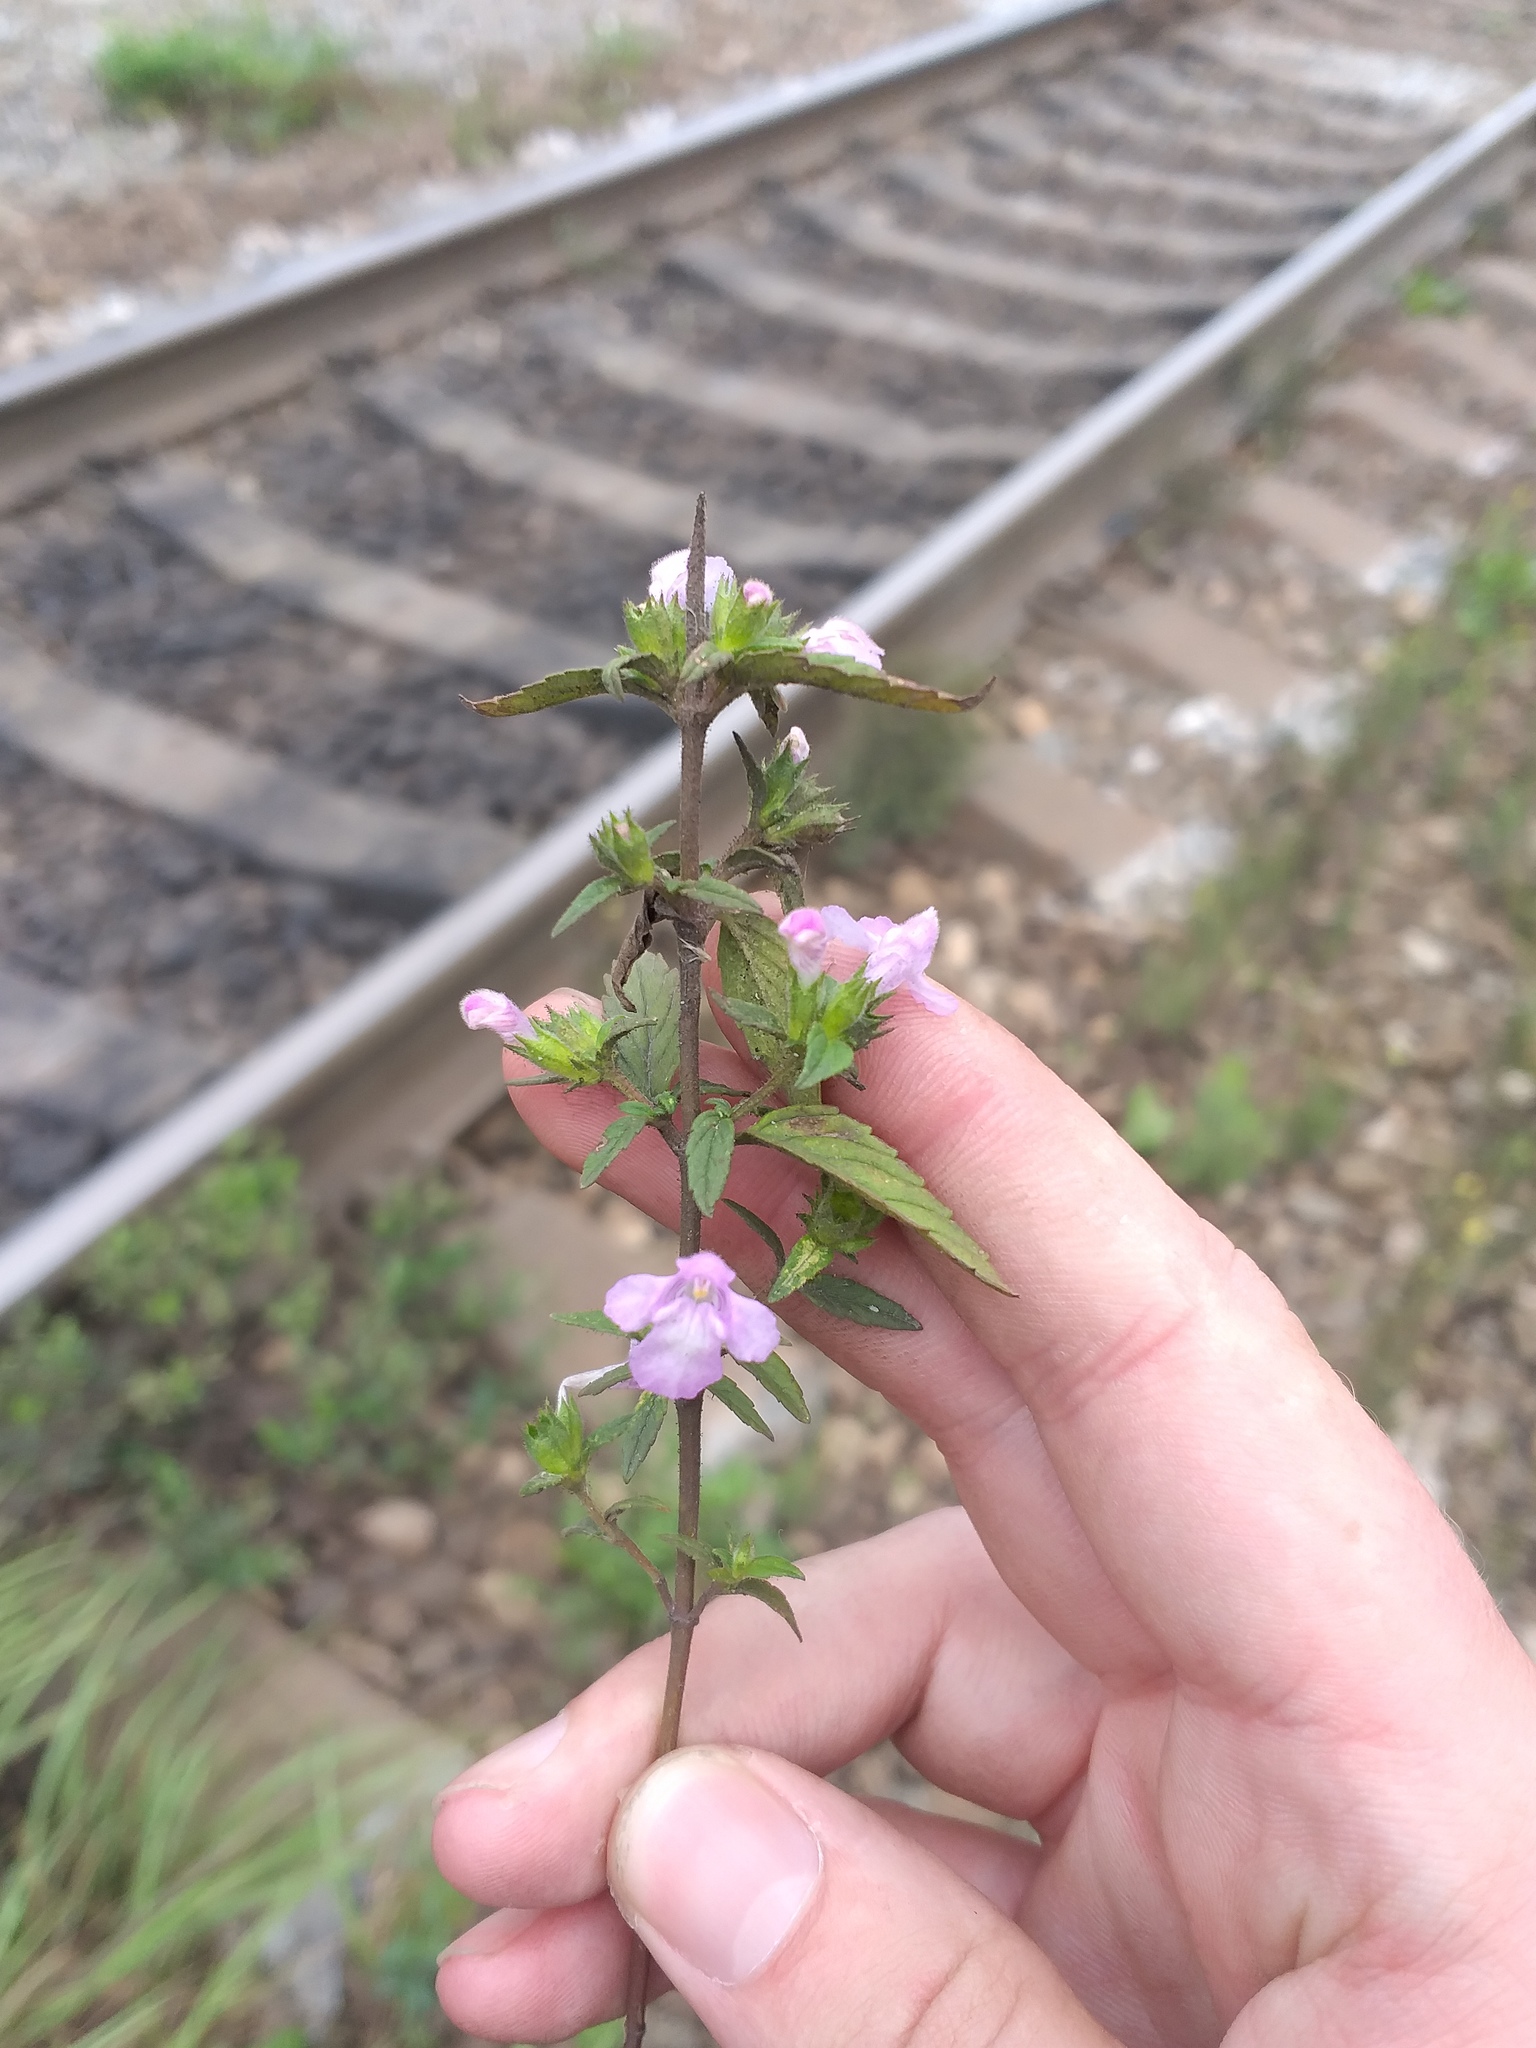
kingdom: Plantae
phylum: Tracheophyta
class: Magnoliopsida
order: Lamiales
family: Lamiaceae
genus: Galeopsis
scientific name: Galeopsis ladanum
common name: Broad-leaved hemp-nettle
